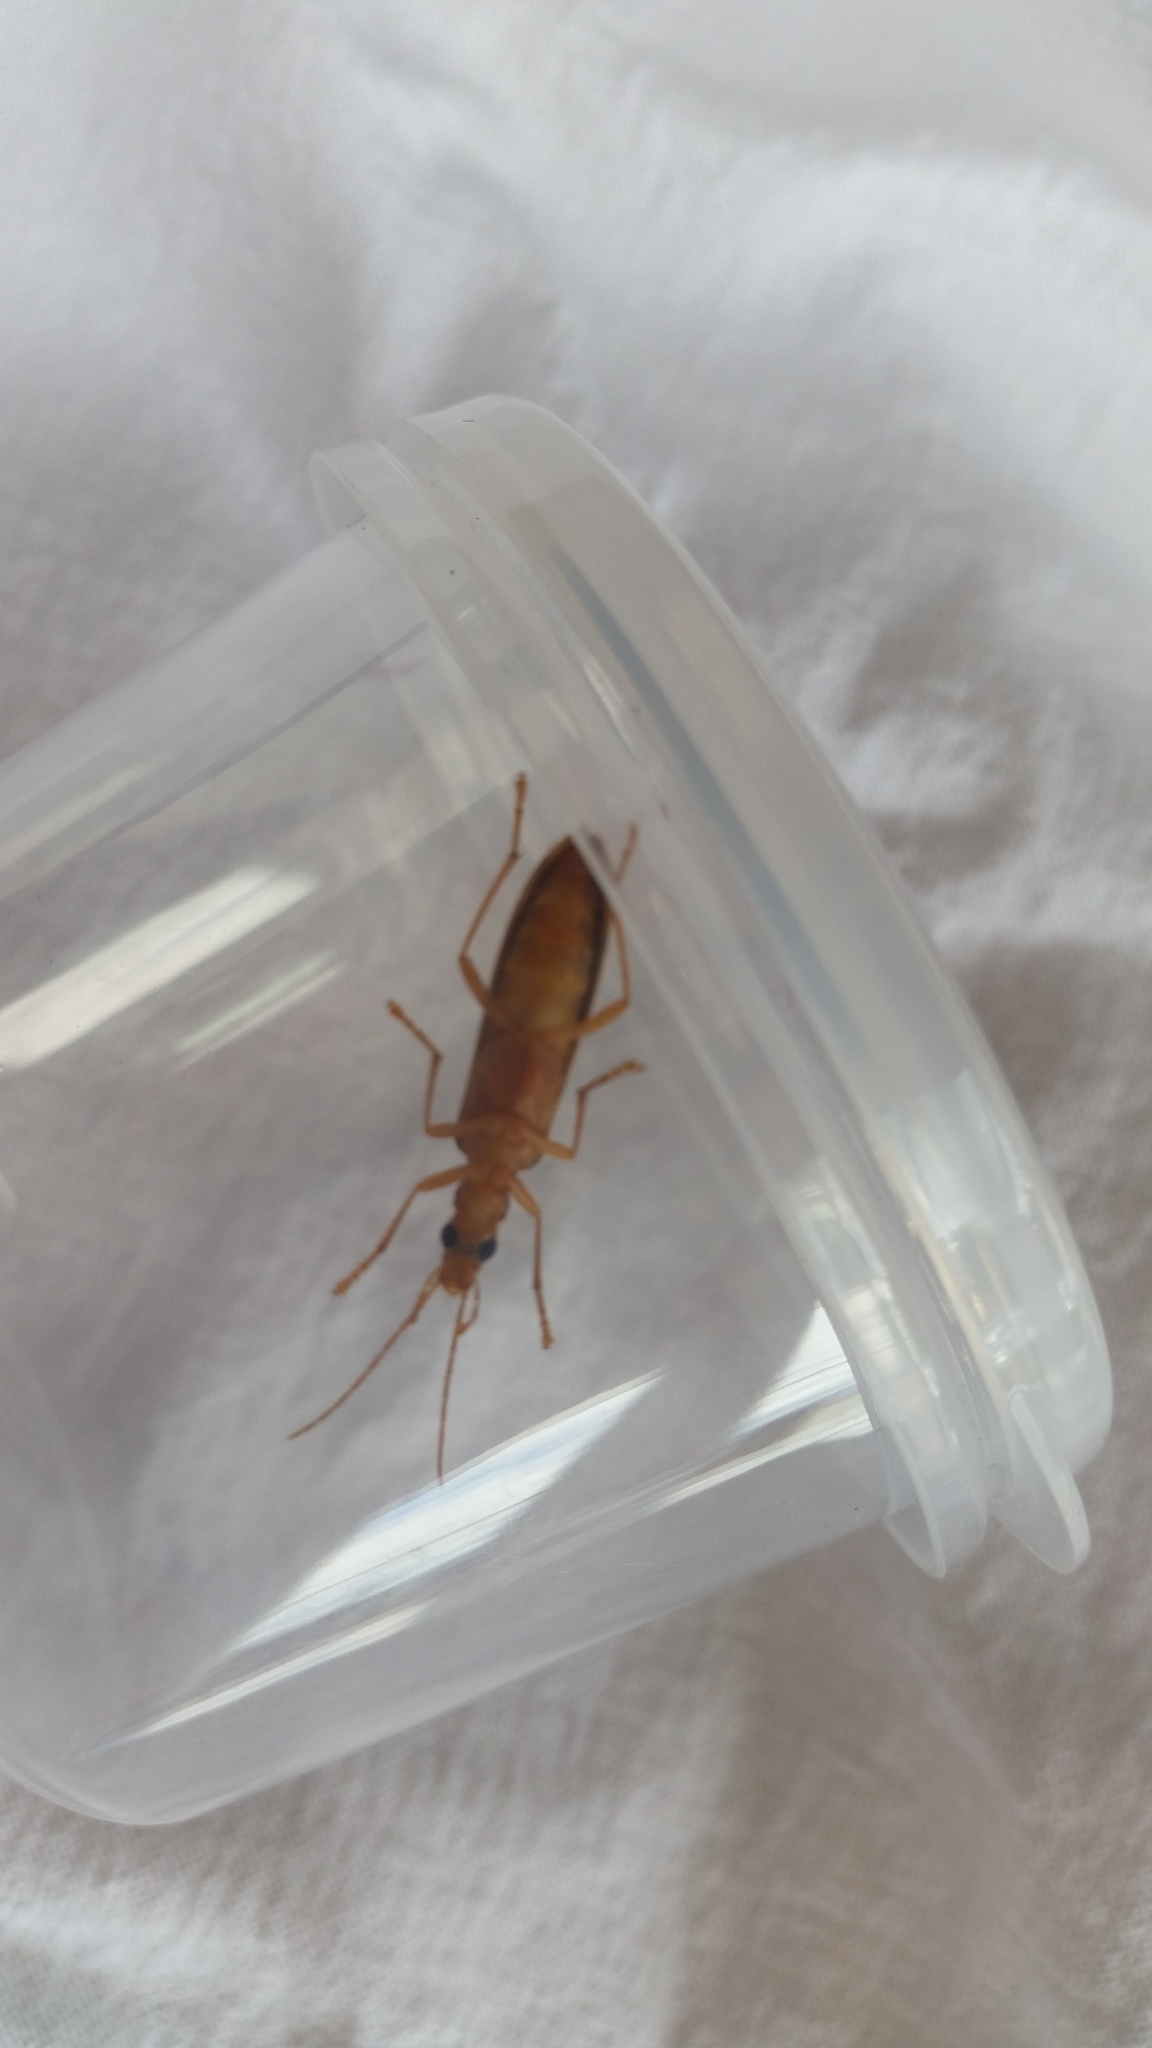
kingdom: Animalia
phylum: Arthropoda
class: Insecta
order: Coleoptera
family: Oedemeridae
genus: Thelyphassa
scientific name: Thelyphassa
